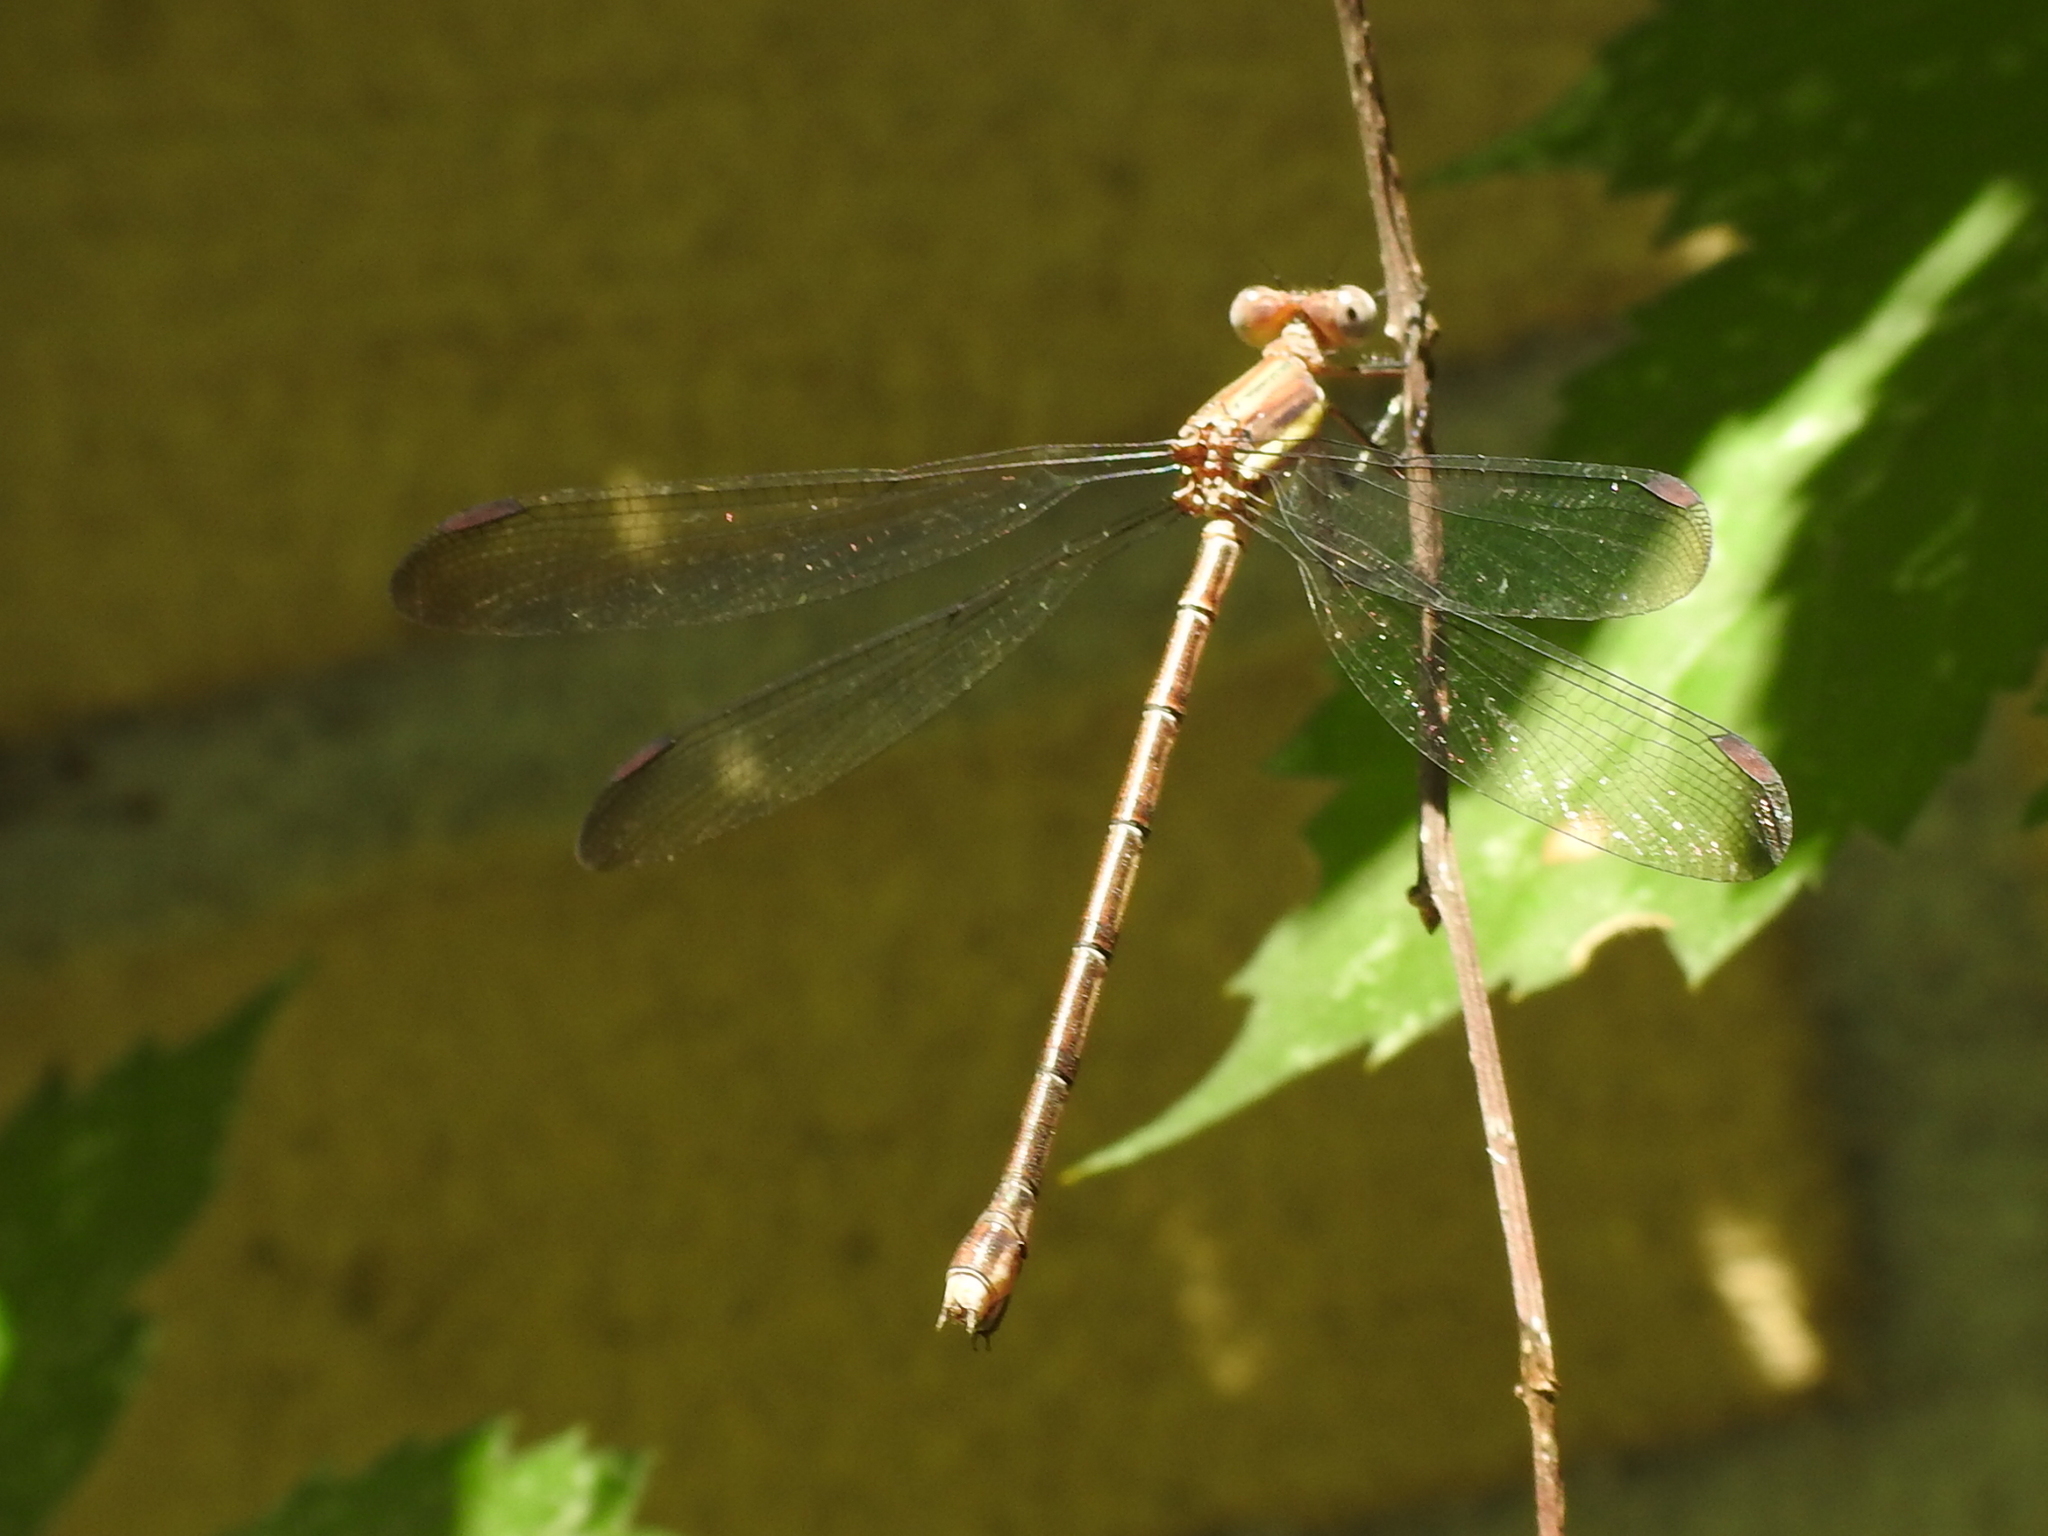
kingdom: Animalia
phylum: Arthropoda
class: Insecta
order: Odonata
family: Lestidae
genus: Archilestes
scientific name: Archilestes grandis
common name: Great spreadwing
